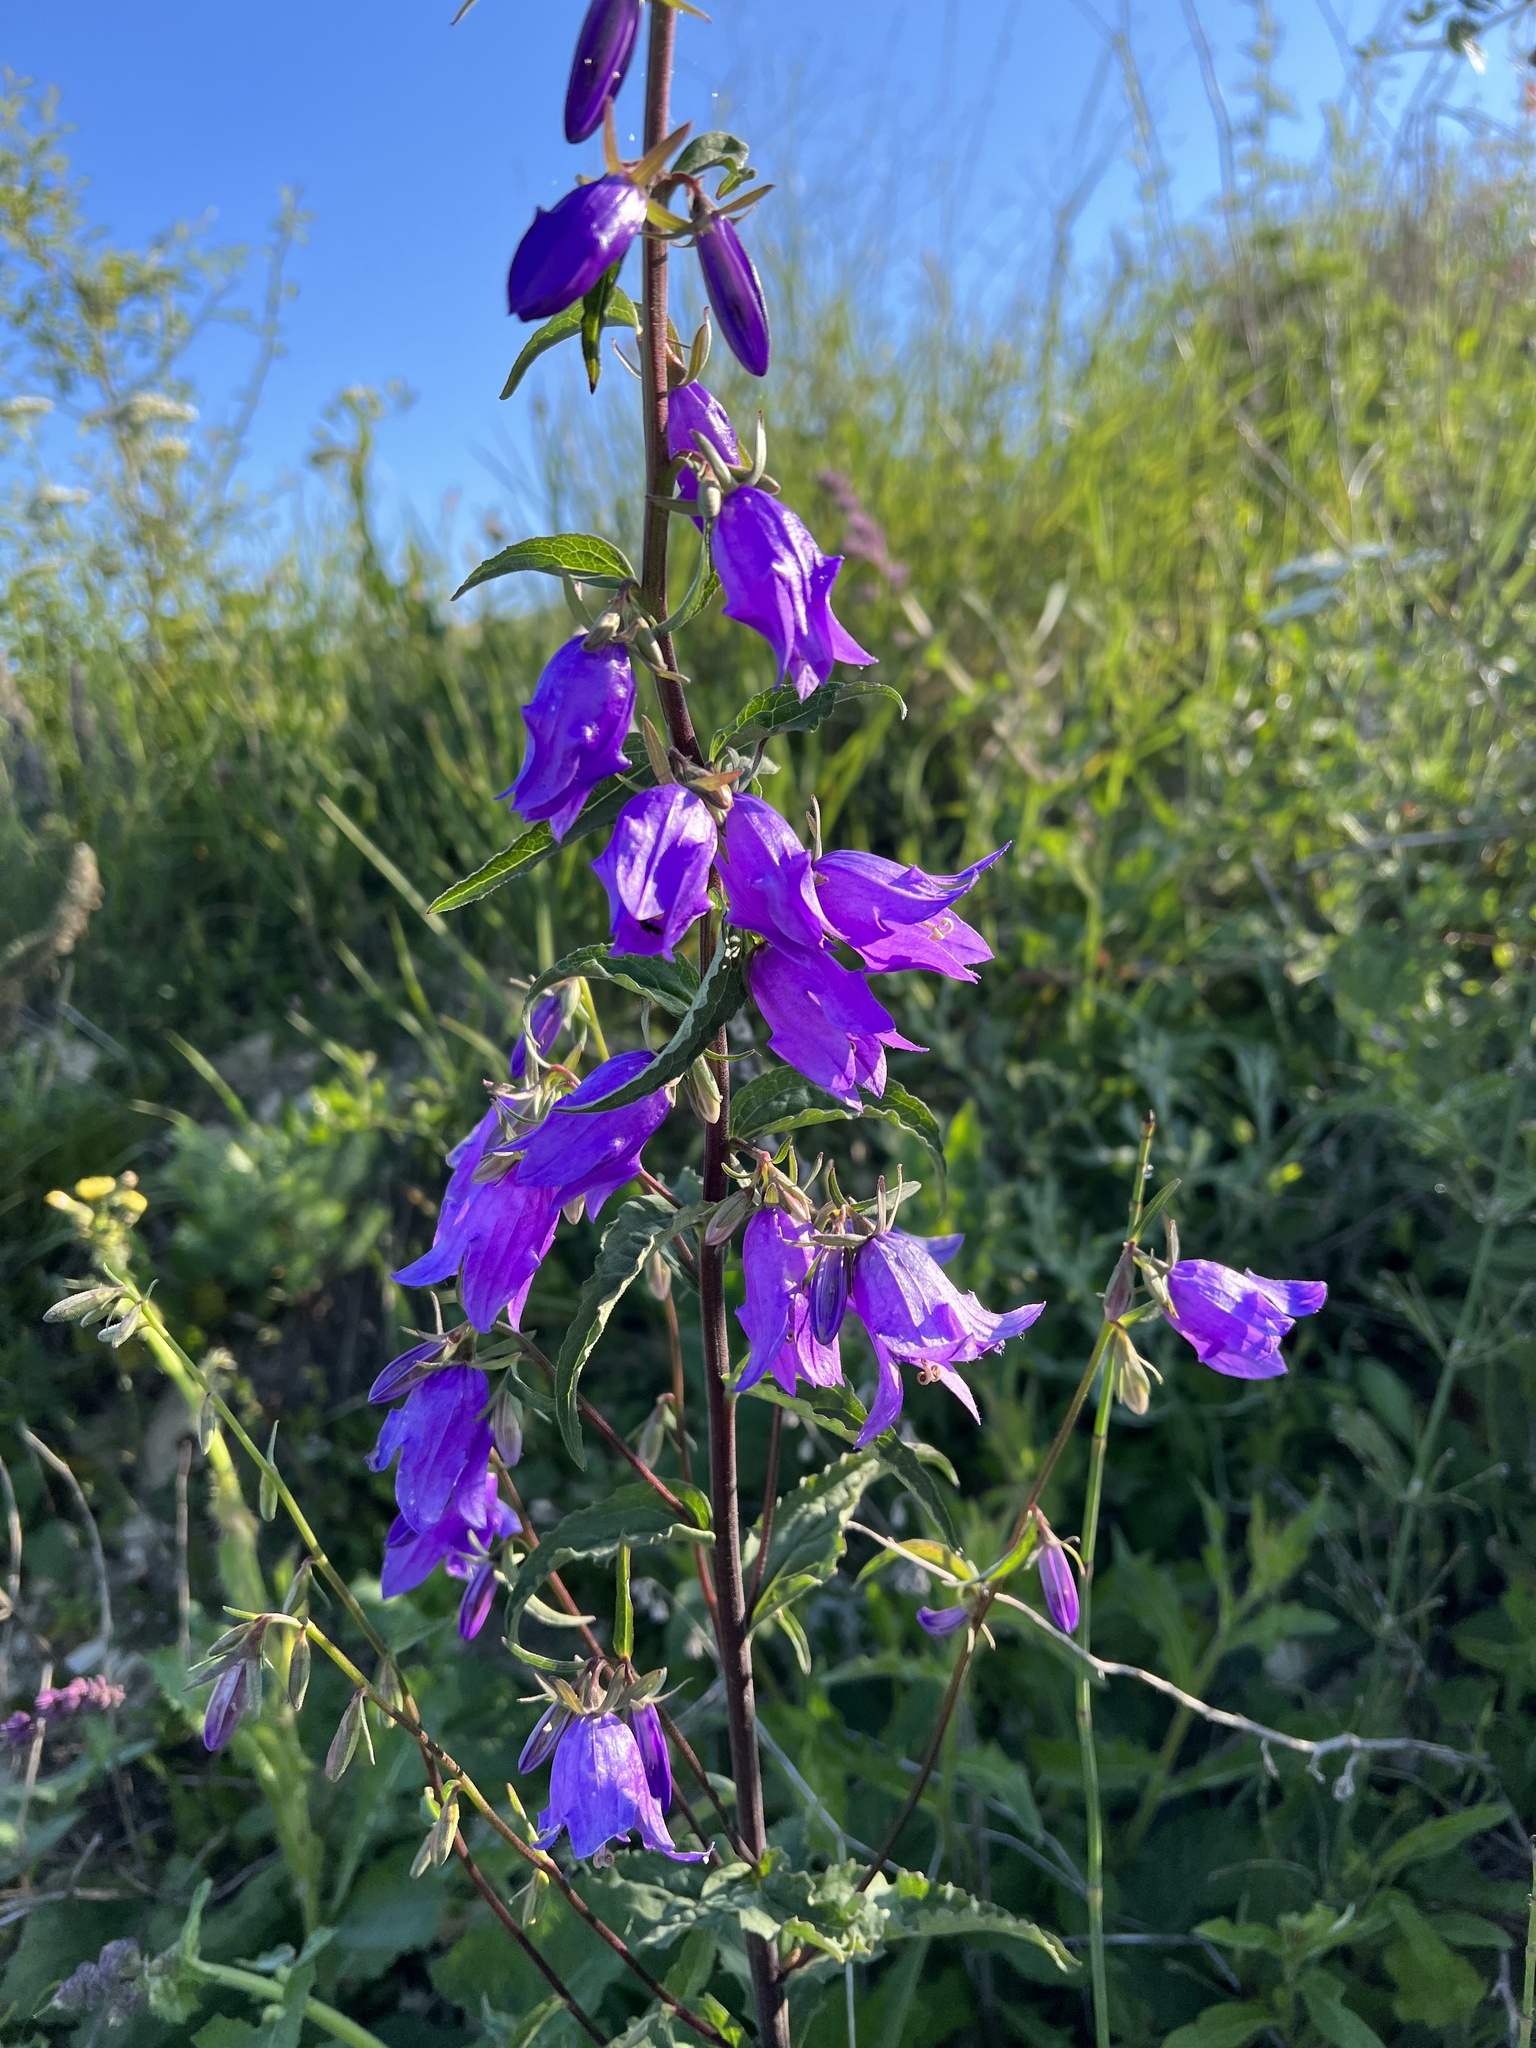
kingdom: Plantae
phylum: Tracheophyta
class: Magnoliopsida
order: Asterales
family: Campanulaceae
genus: Campanula
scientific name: Campanula trachelium
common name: Nettle-leaved bellflower
